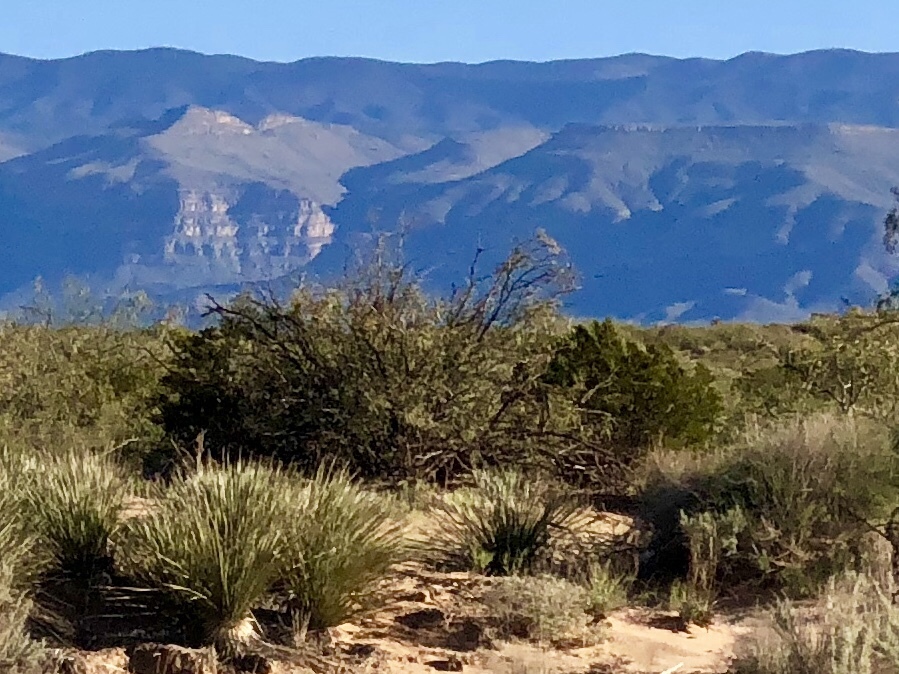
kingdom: Plantae
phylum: Tracheophyta
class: Magnoliopsida
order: Zygophyllales
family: Zygophyllaceae
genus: Larrea
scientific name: Larrea tridentata
